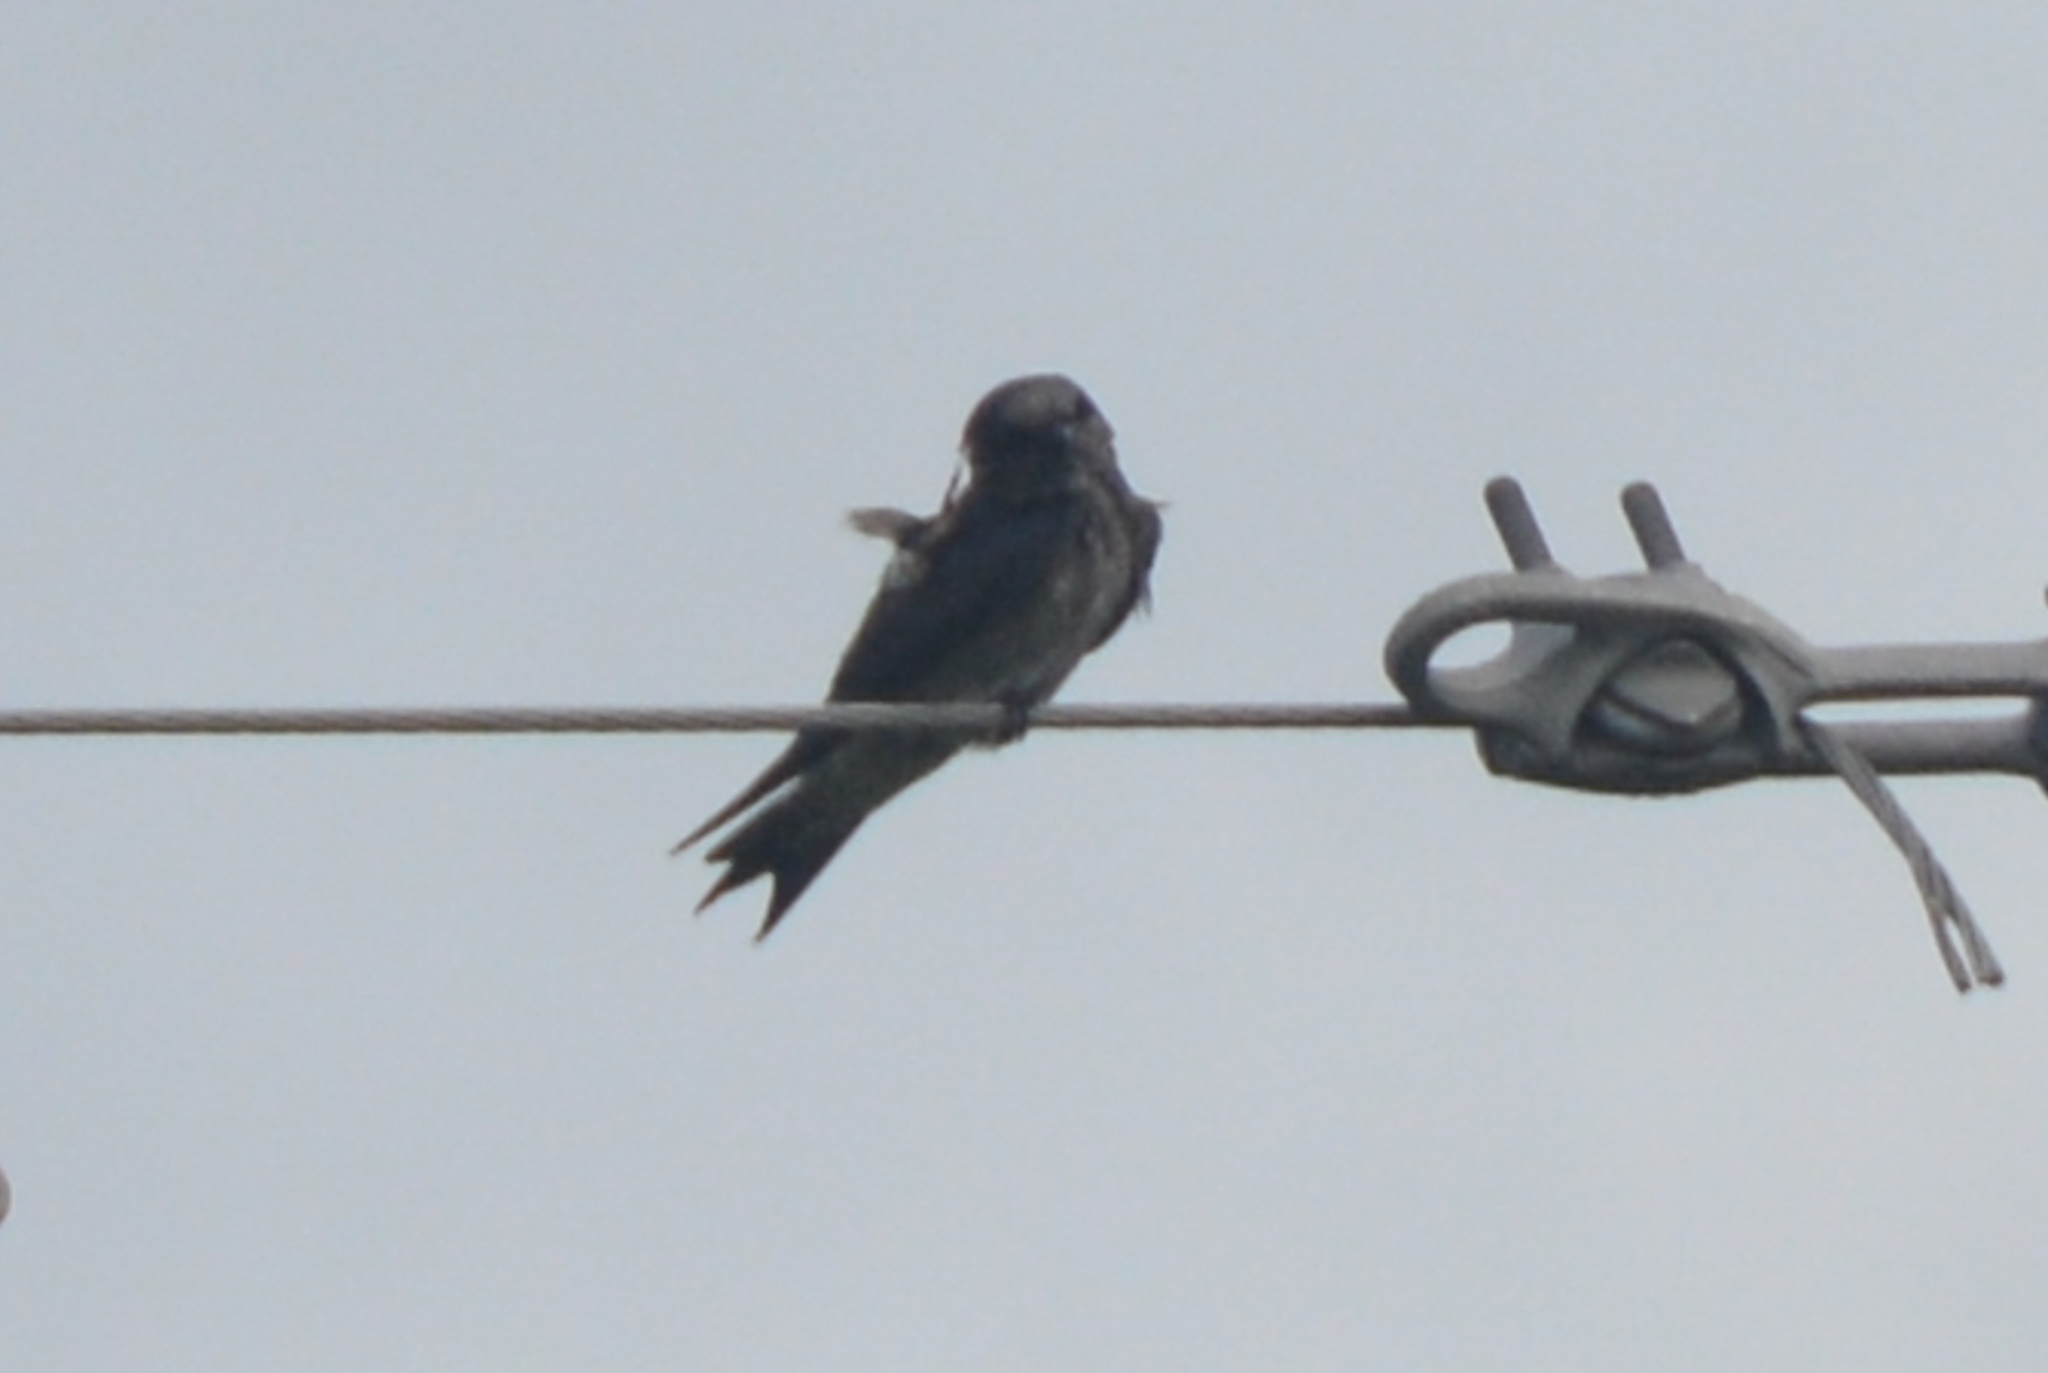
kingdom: Animalia
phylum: Chordata
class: Aves
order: Passeriformes
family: Hirundinidae
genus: Progne
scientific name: Progne subis
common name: Purple martin
